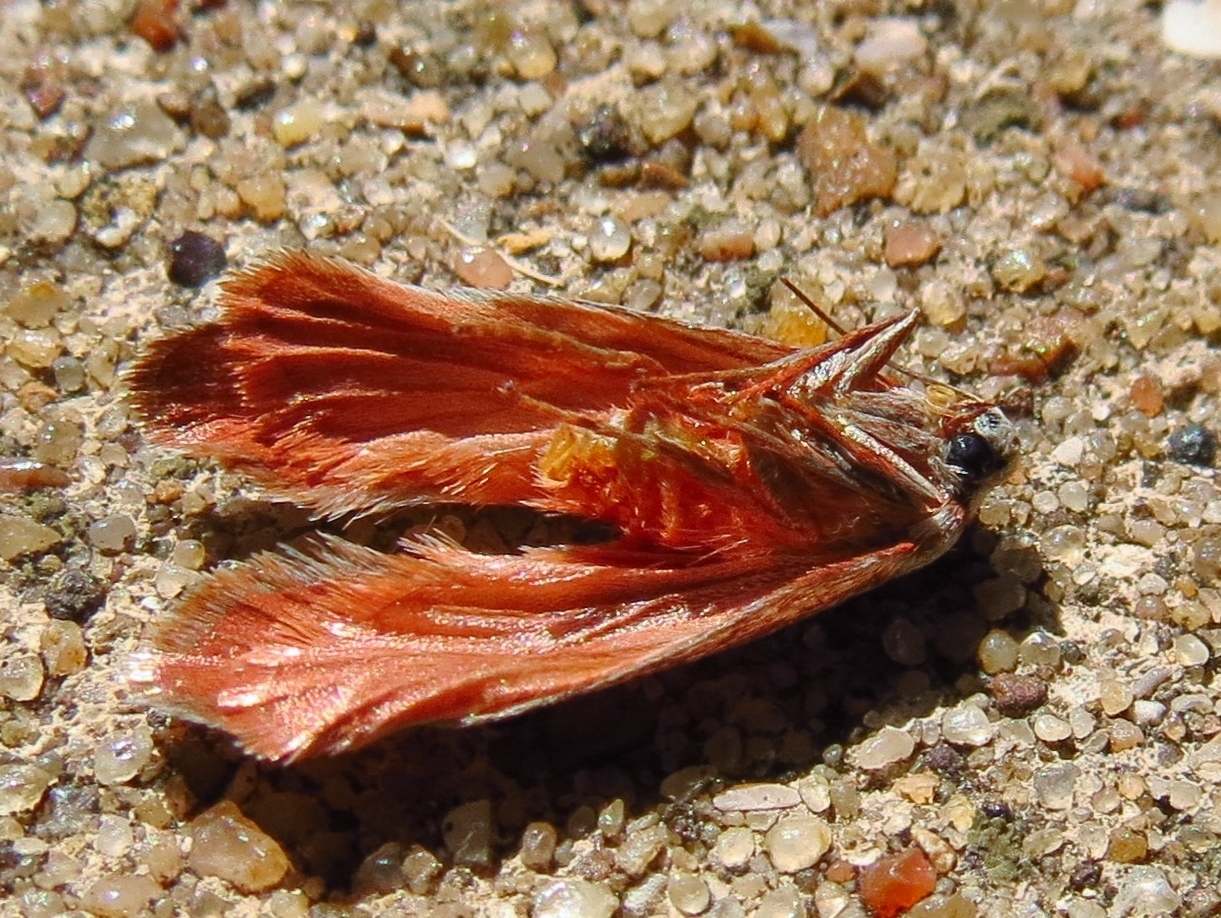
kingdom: Animalia
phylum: Arthropoda
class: Insecta
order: Lepidoptera
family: Lacturidae
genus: Lactura
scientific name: Lactura
